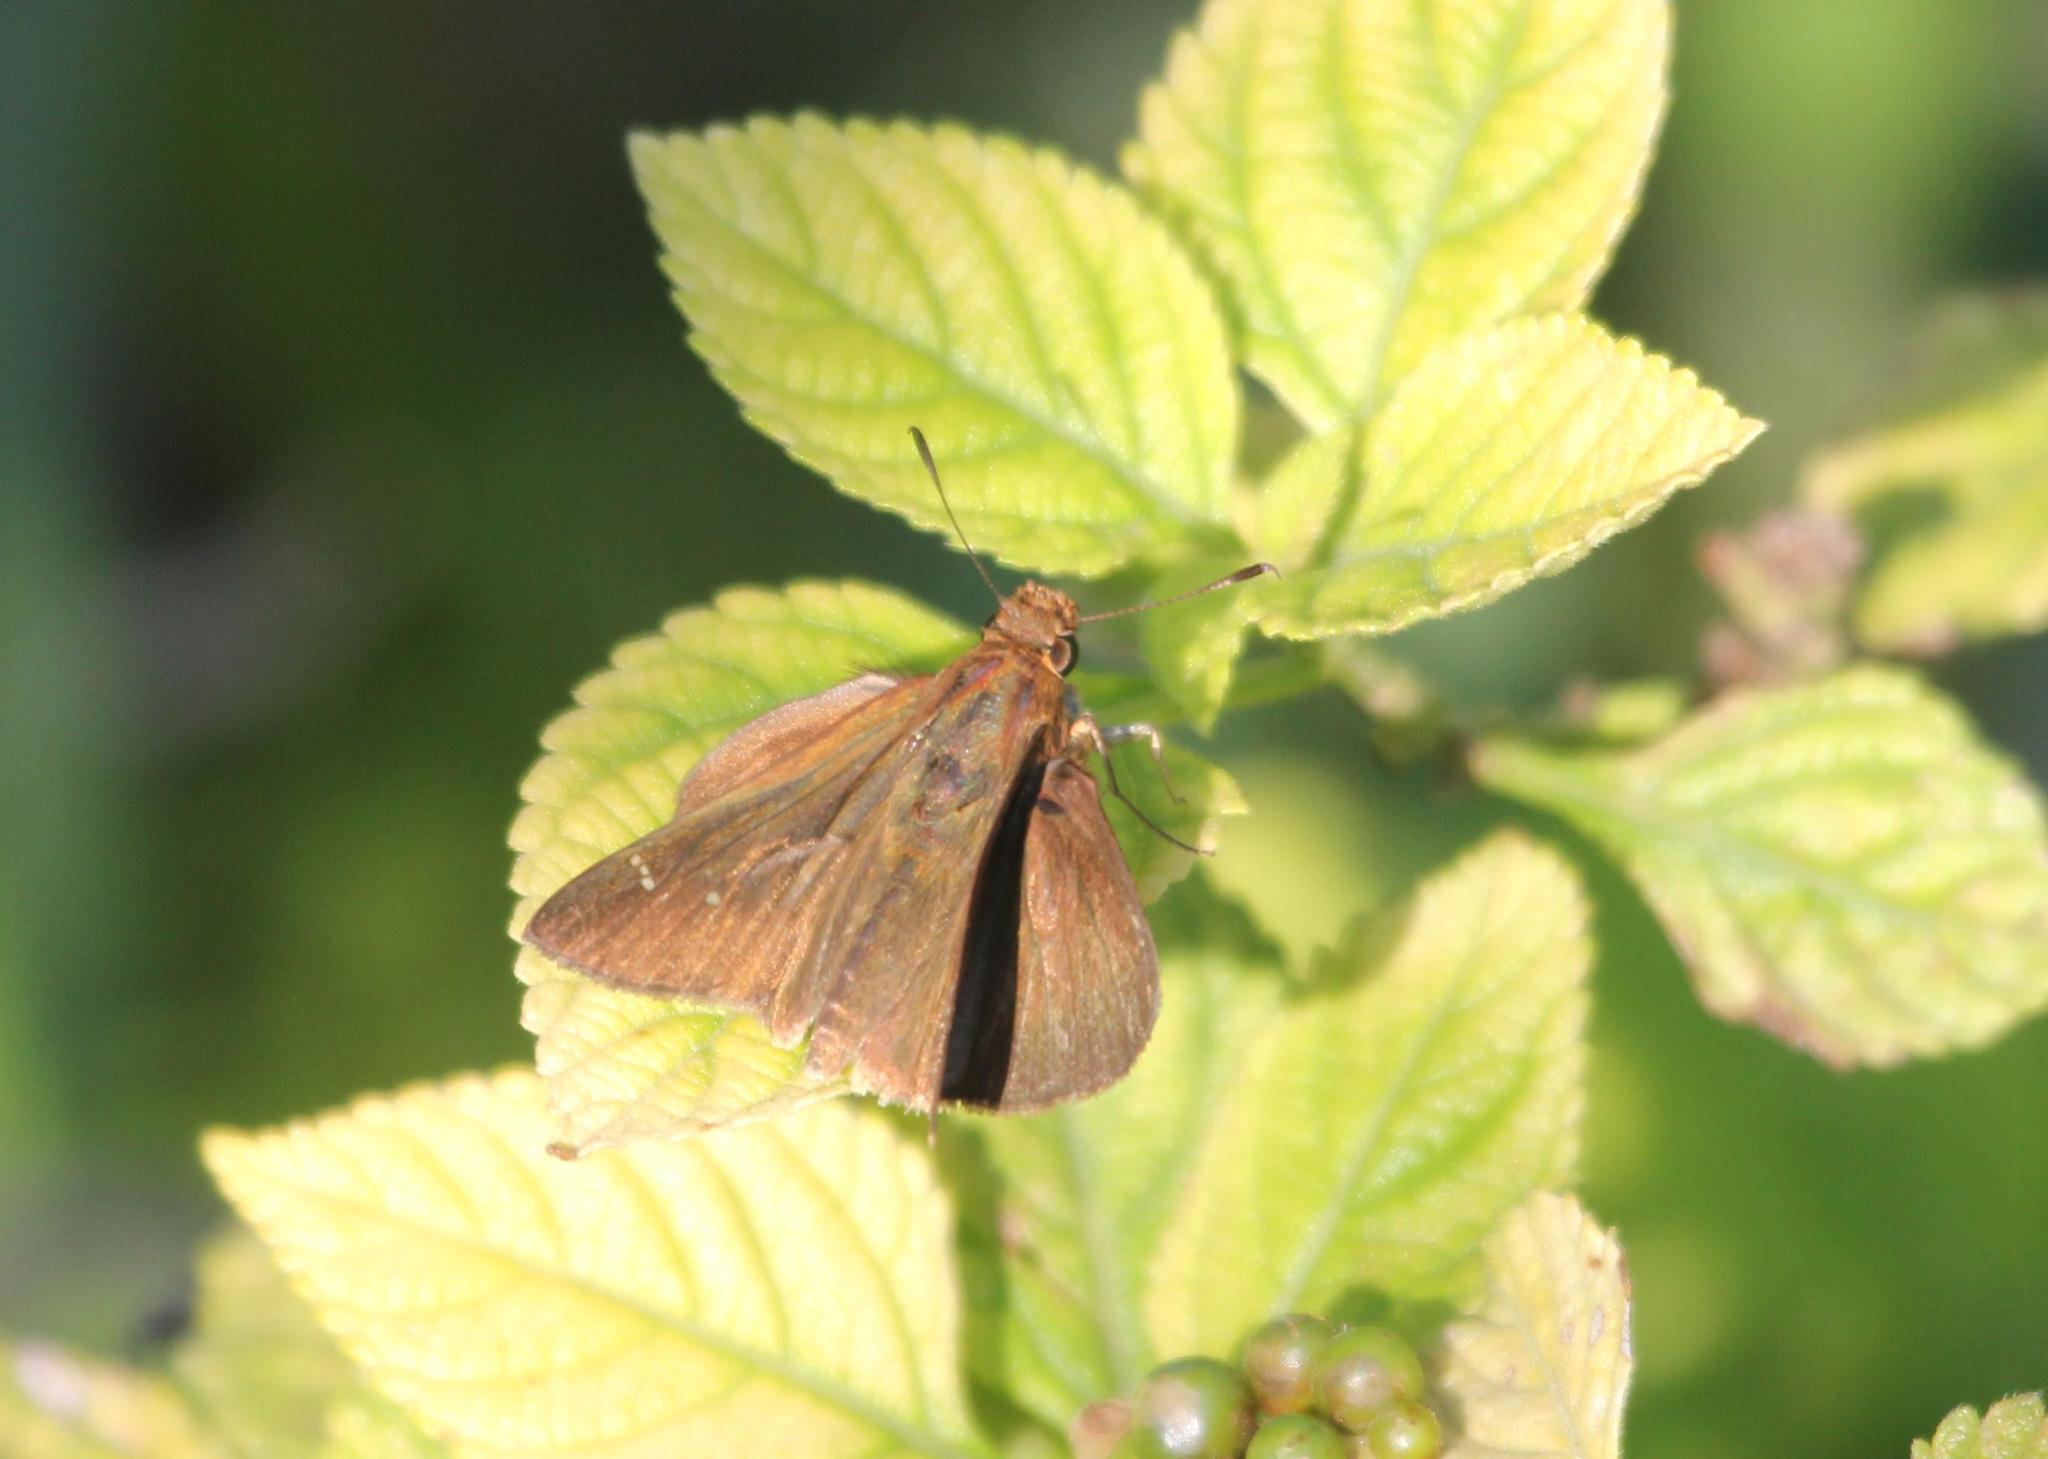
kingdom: Animalia
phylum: Arthropoda
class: Insecta
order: Lepidoptera
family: Hesperiidae
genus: Lerema
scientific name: Lerema accius
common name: Clouded skipper
